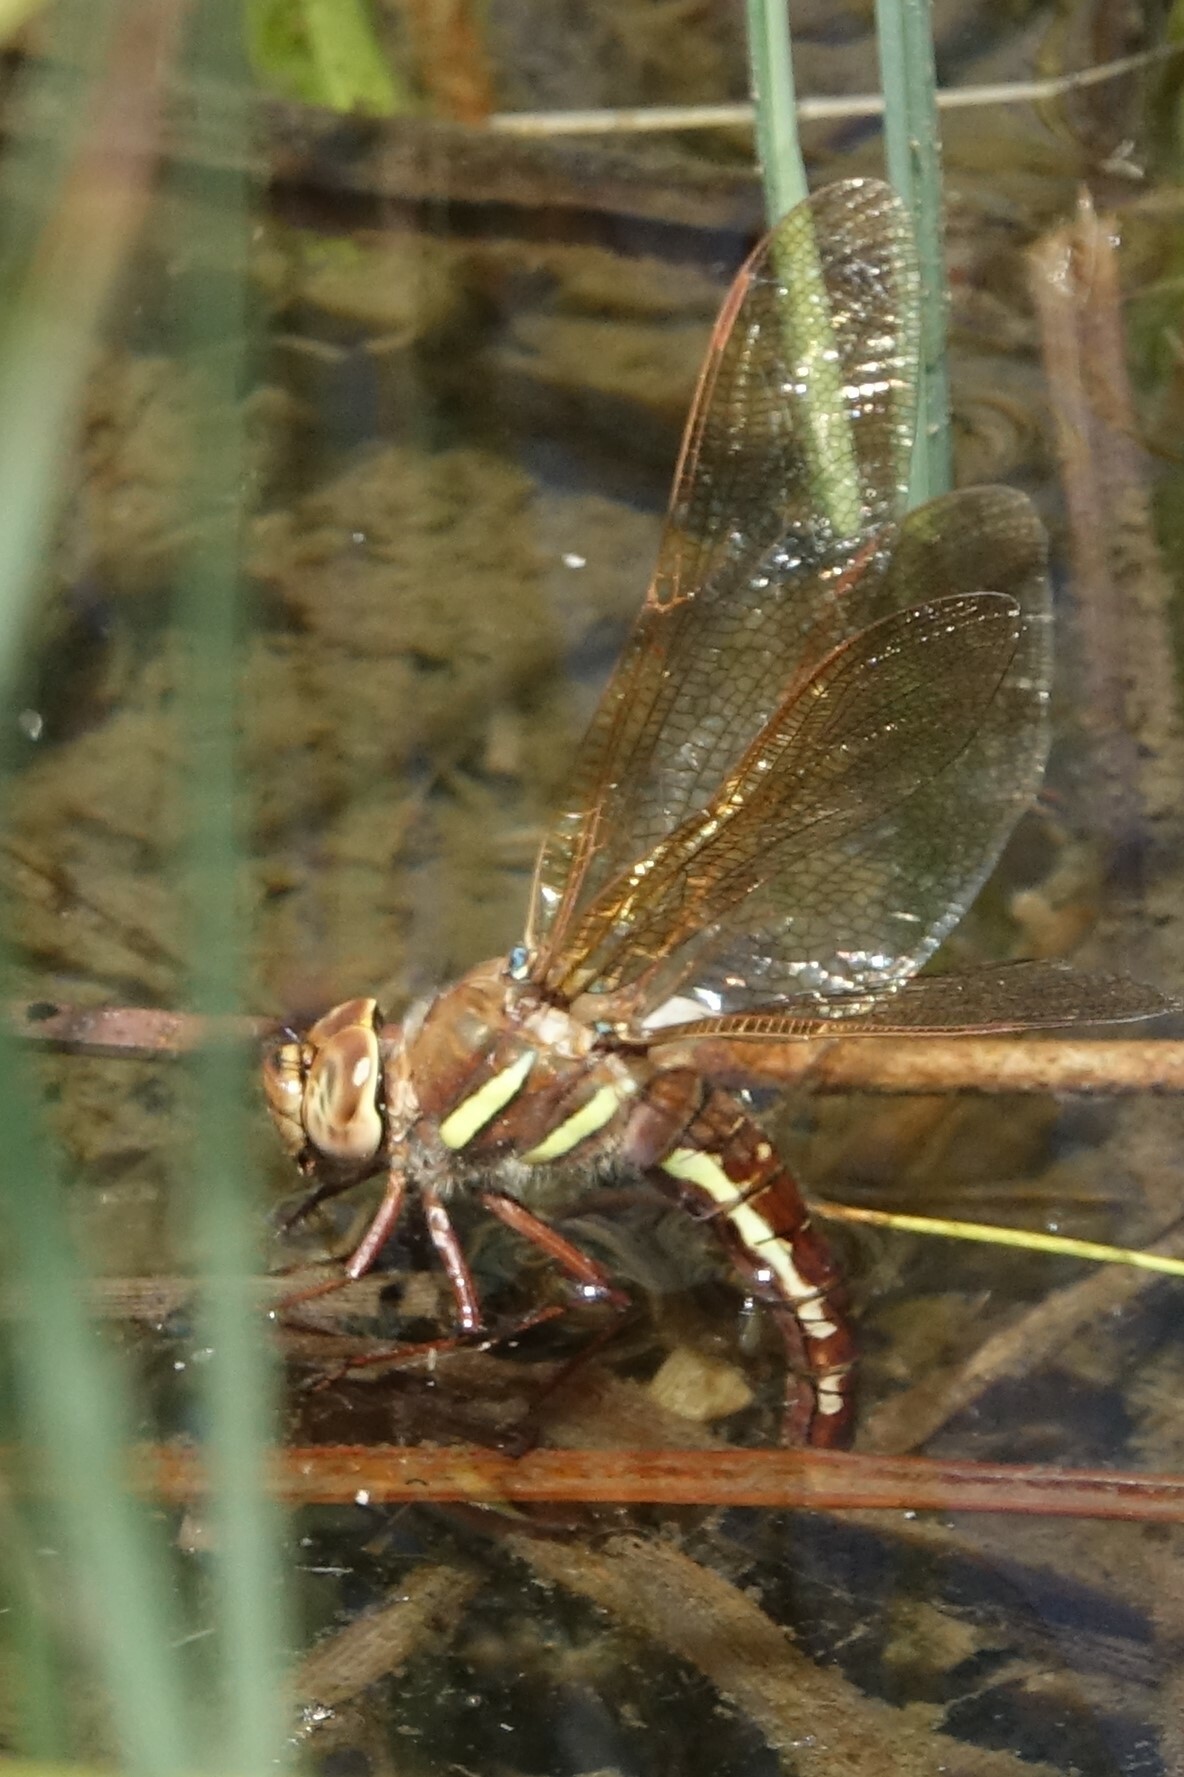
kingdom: Animalia
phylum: Arthropoda
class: Insecta
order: Odonata
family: Aeshnidae
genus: Aeshna
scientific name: Aeshna grandis
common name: Brown hawker
